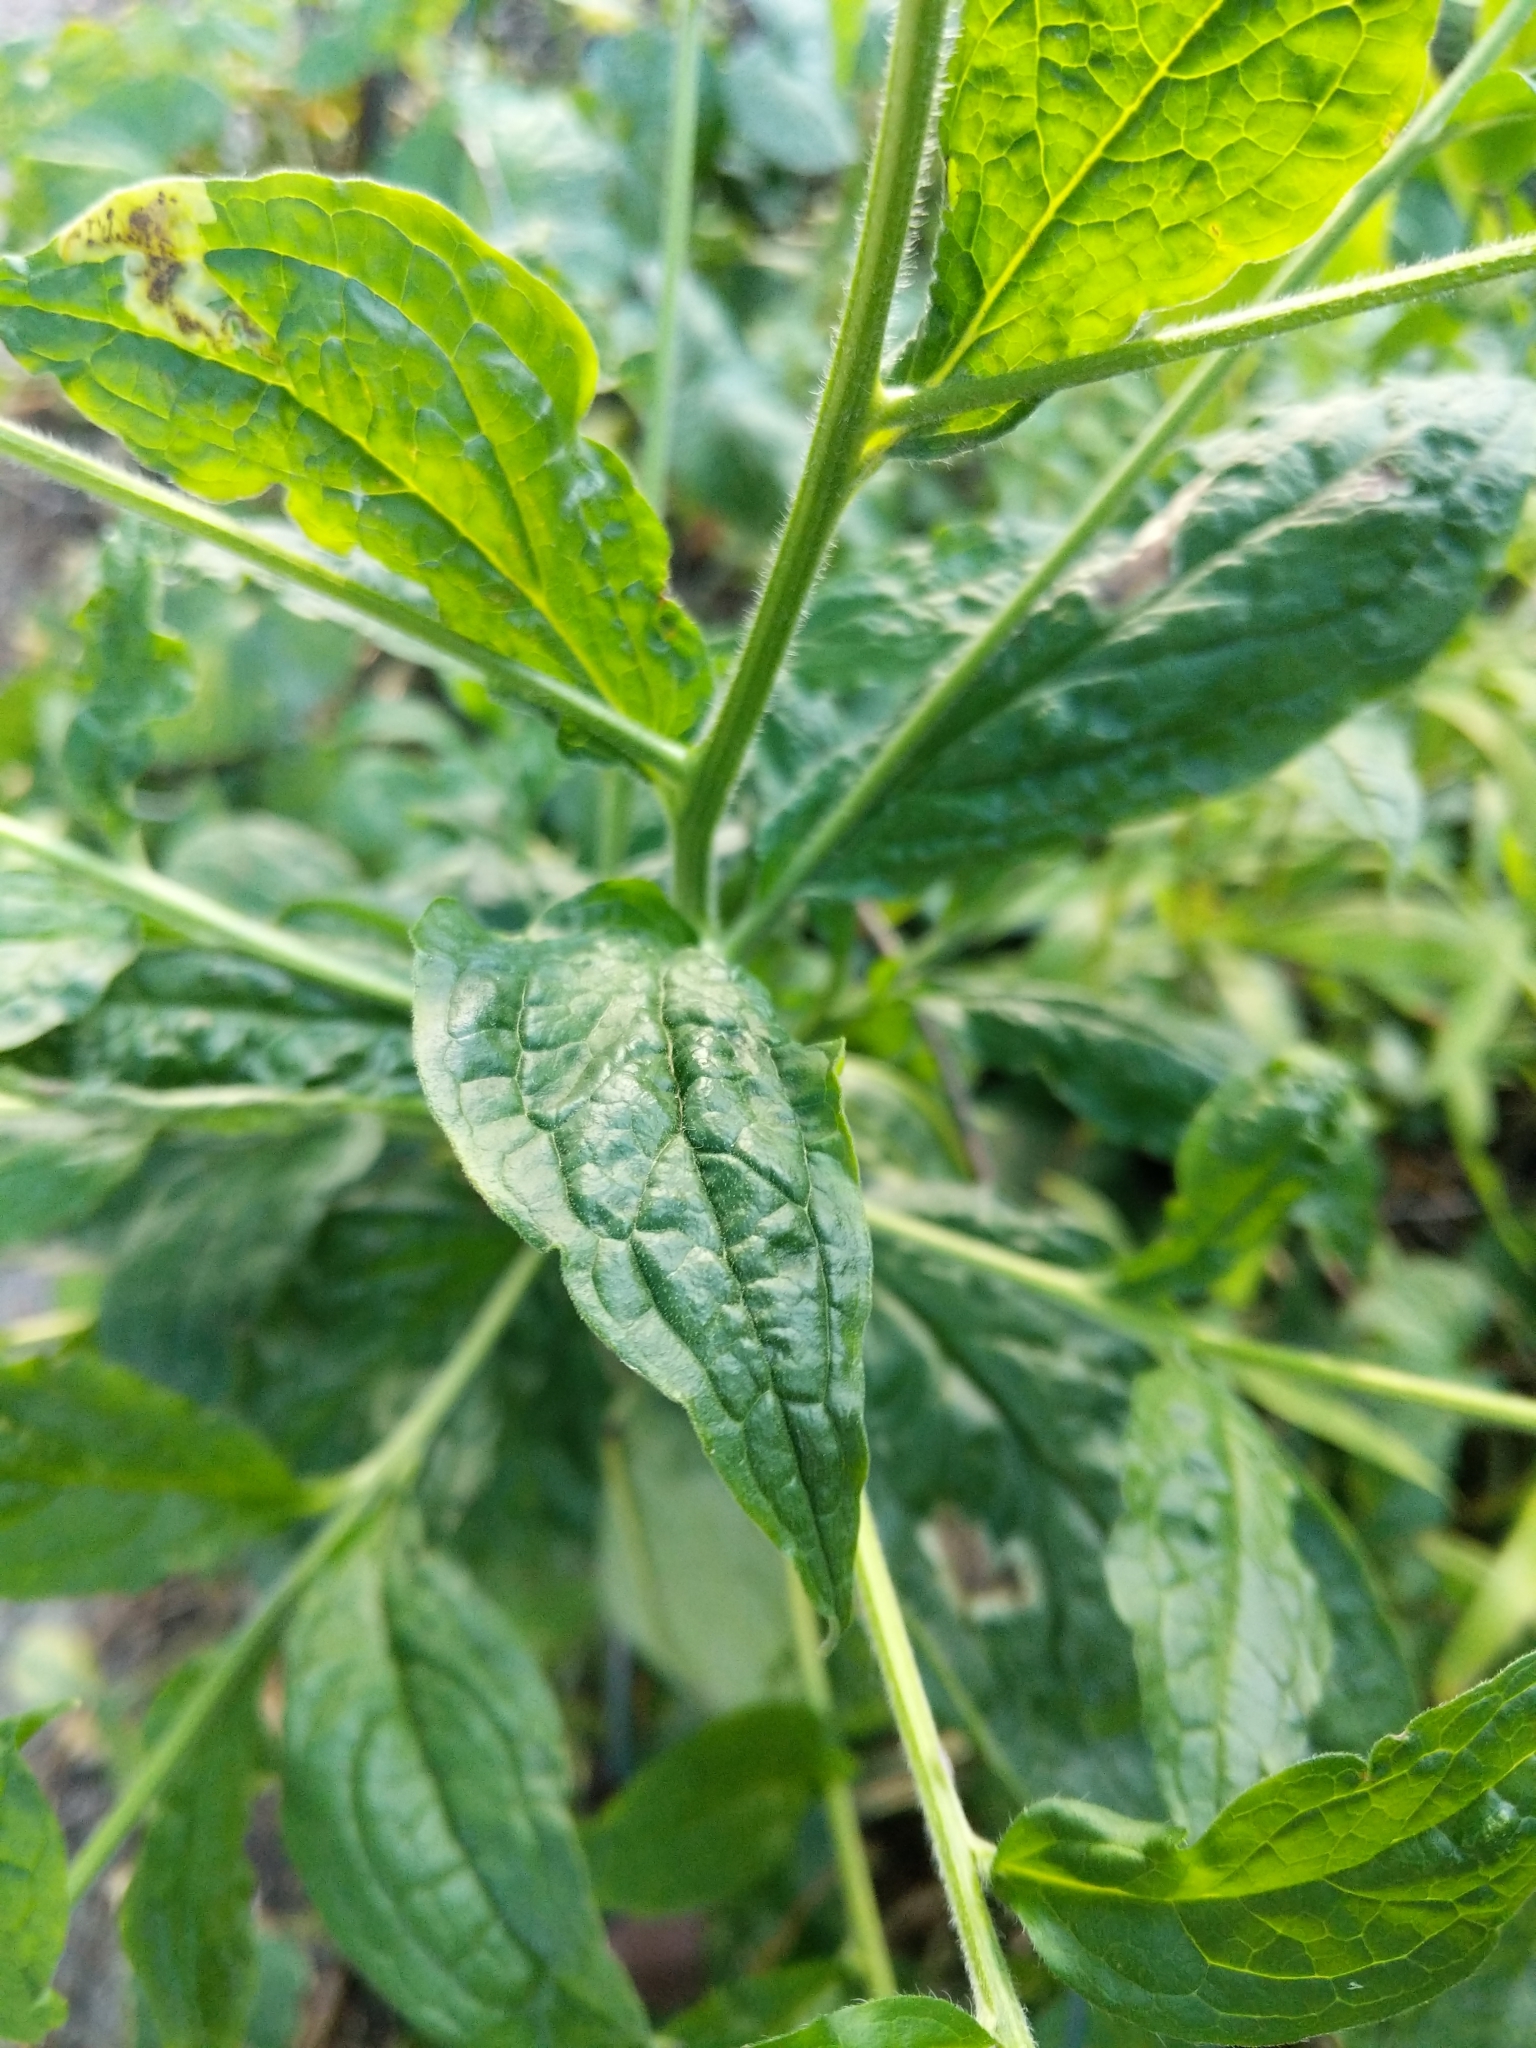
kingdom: Plantae
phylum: Tracheophyta
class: Magnoliopsida
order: Boraginales
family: Boraginaceae
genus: Hackelia
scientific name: Hackelia virginiana
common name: Beggar's-lice
